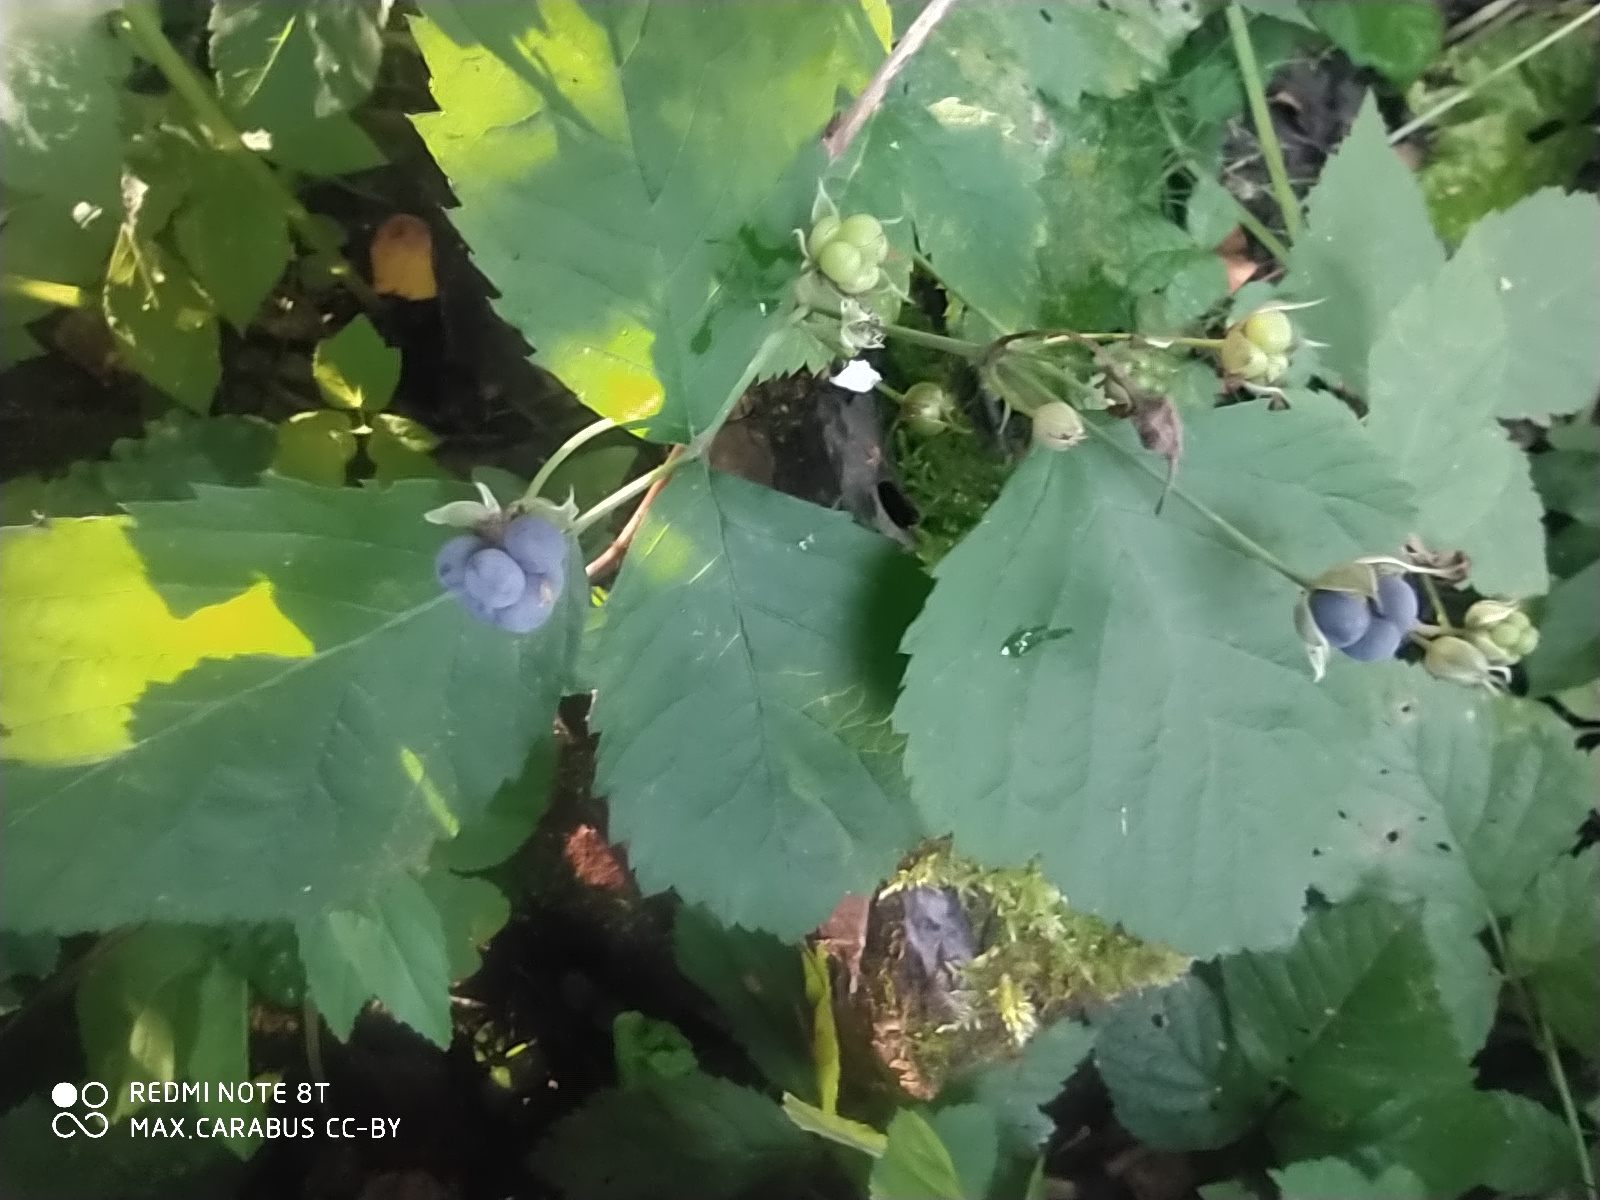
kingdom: Plantae
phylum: Tracheophyta
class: Magnoliopsida
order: Rosales
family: Rosaceae
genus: Rubus
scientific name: Rubus caesius
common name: Dewberry
